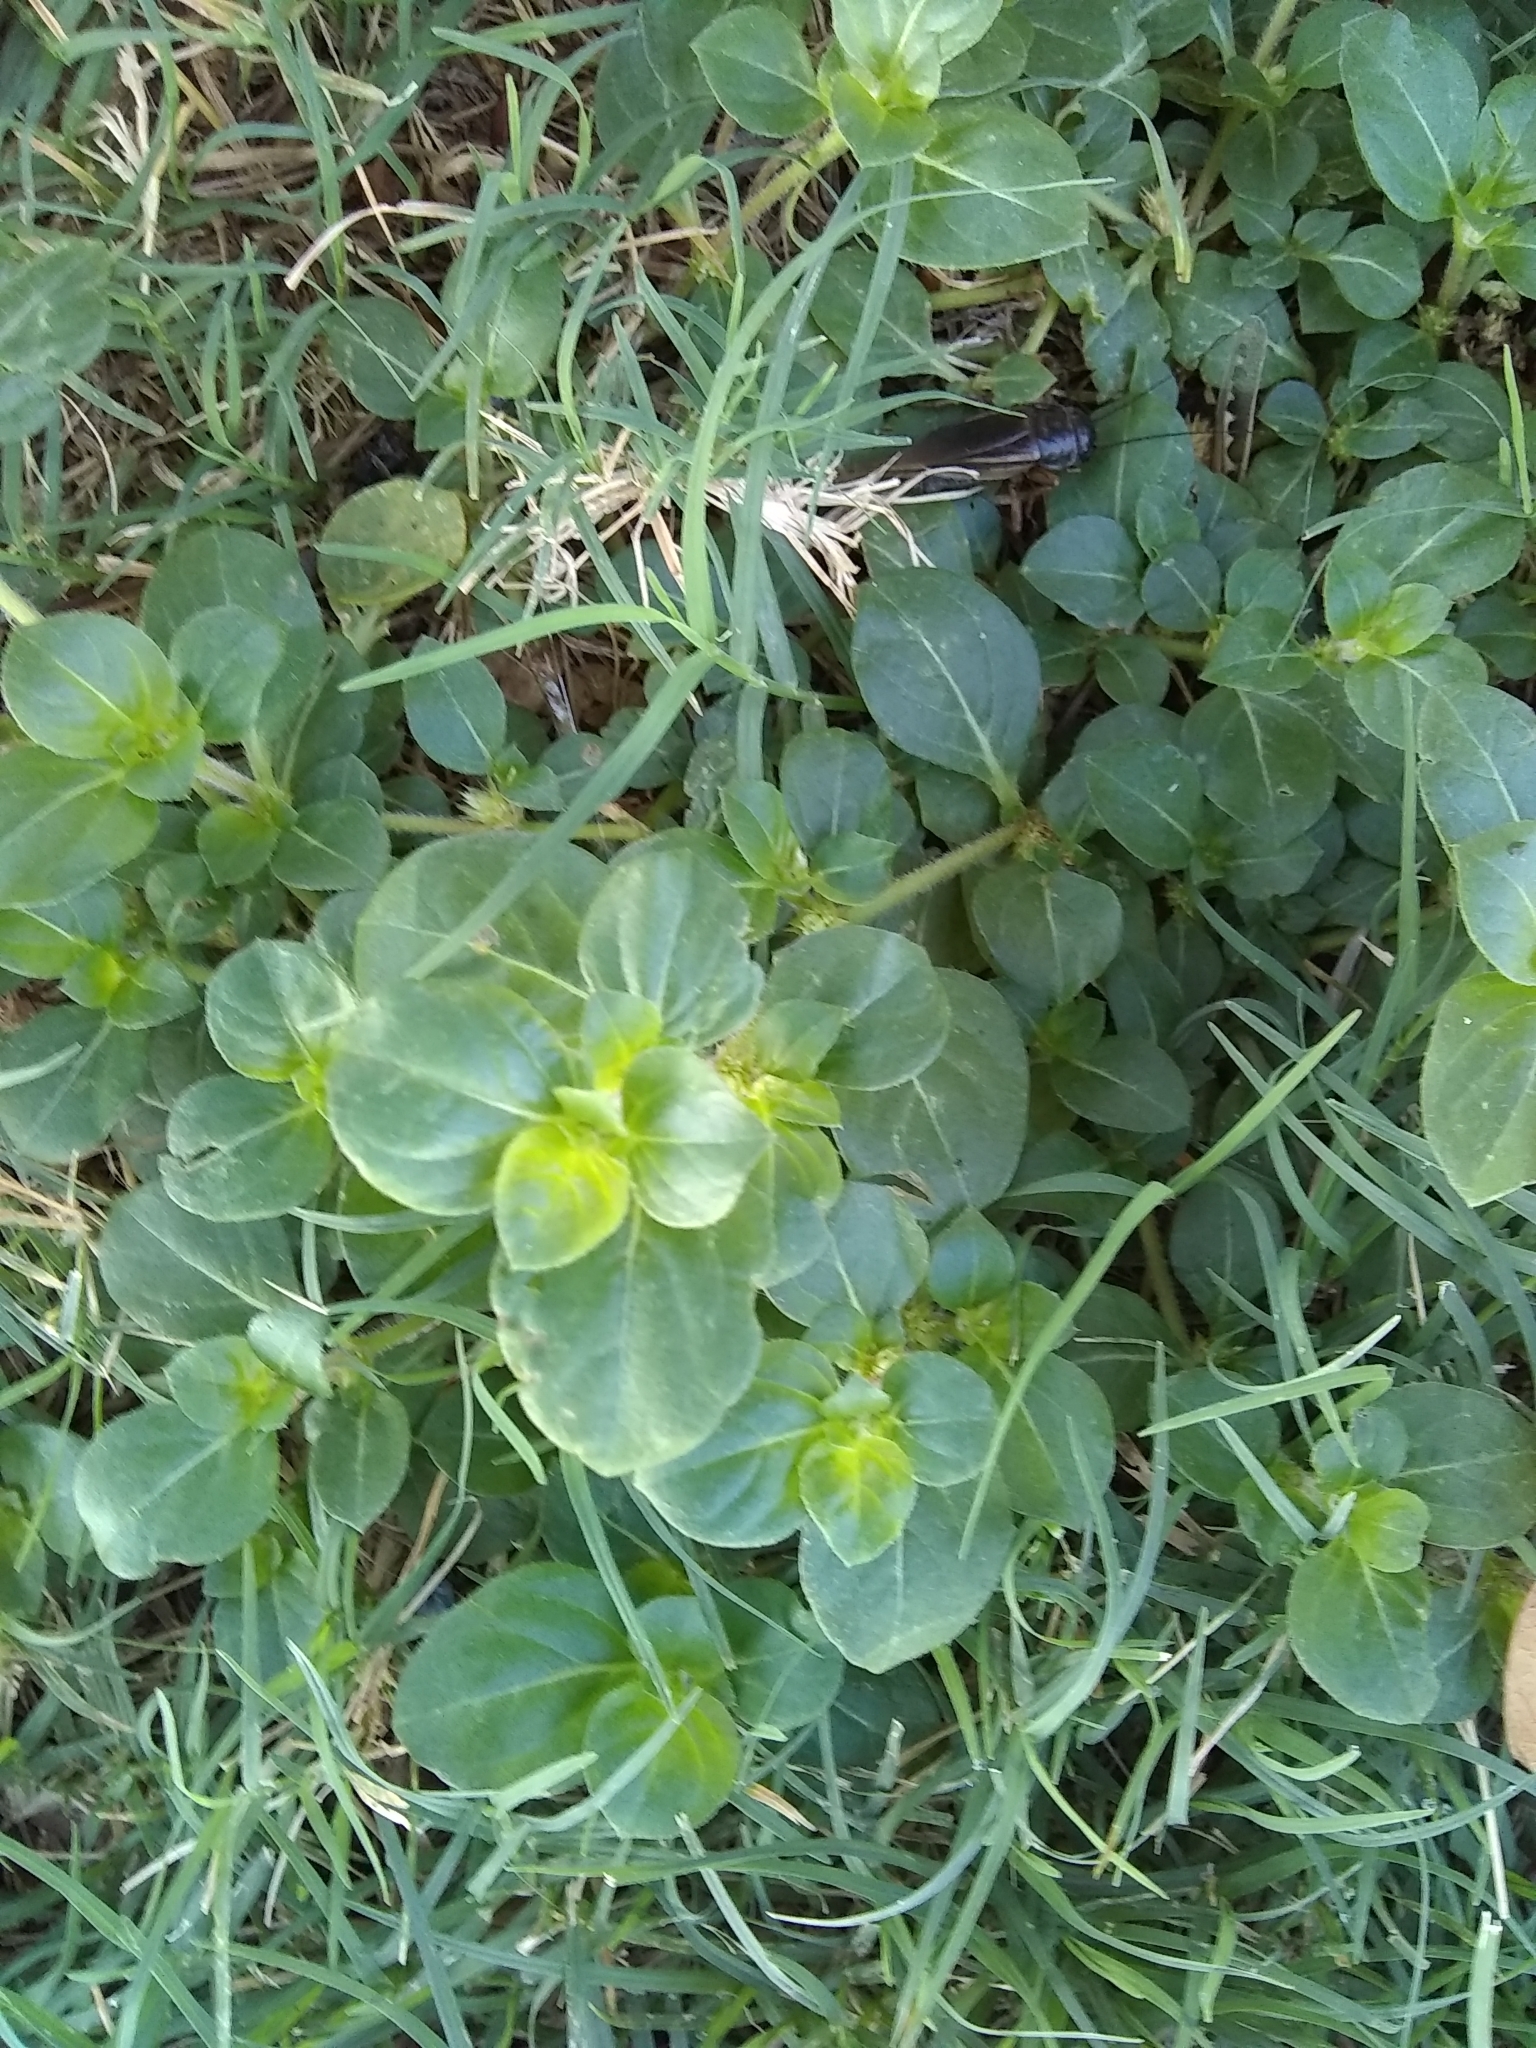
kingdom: Plantae
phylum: Tracheophyta
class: Magnoliopsida
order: Caryophyllales
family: Amaranthaceae
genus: Alternanthera
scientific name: Alternanthera pungens
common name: Khakiweed
